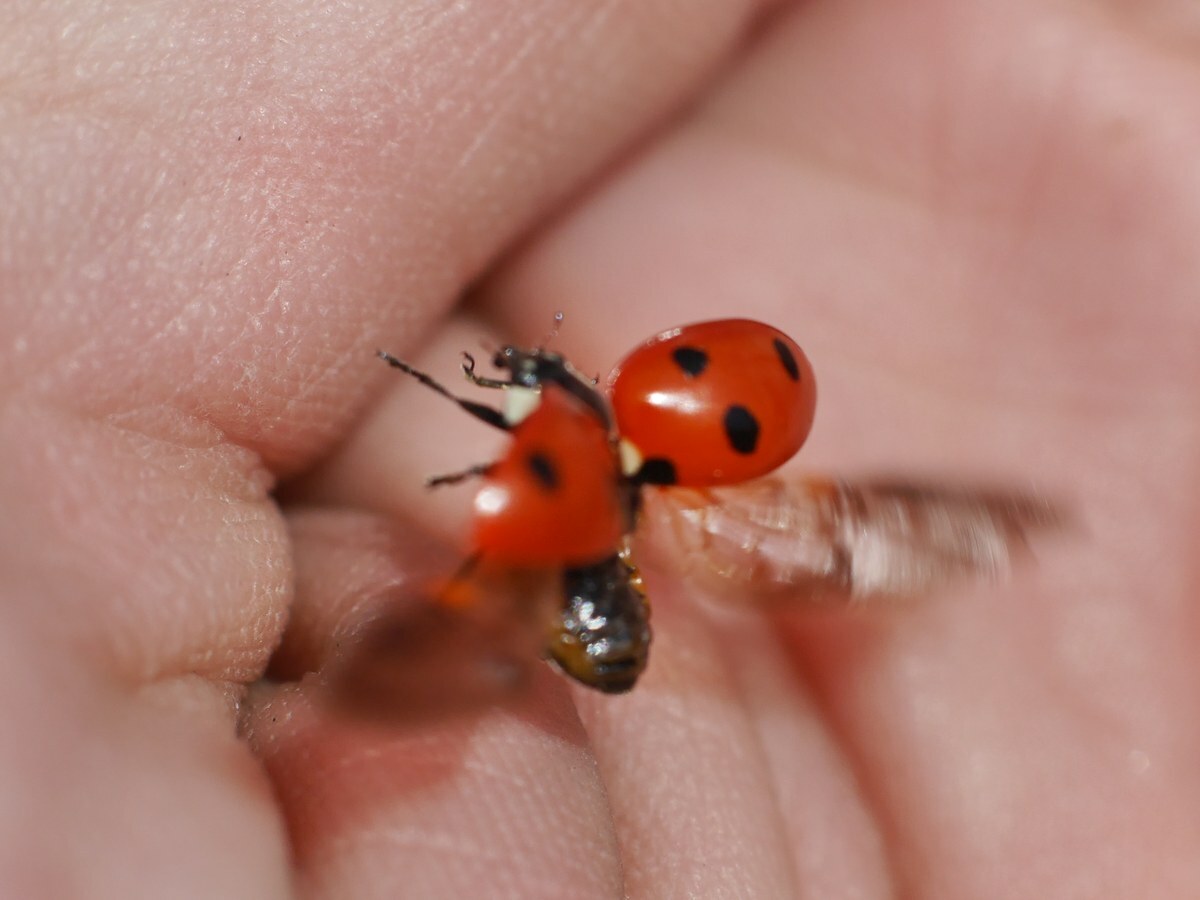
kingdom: Animalia
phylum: Arthropoda
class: Insecta
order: Coleoptera
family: Coccinellidae
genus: Coccinella
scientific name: Coccinella septempunctata
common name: Sevenspotted lady beetle
